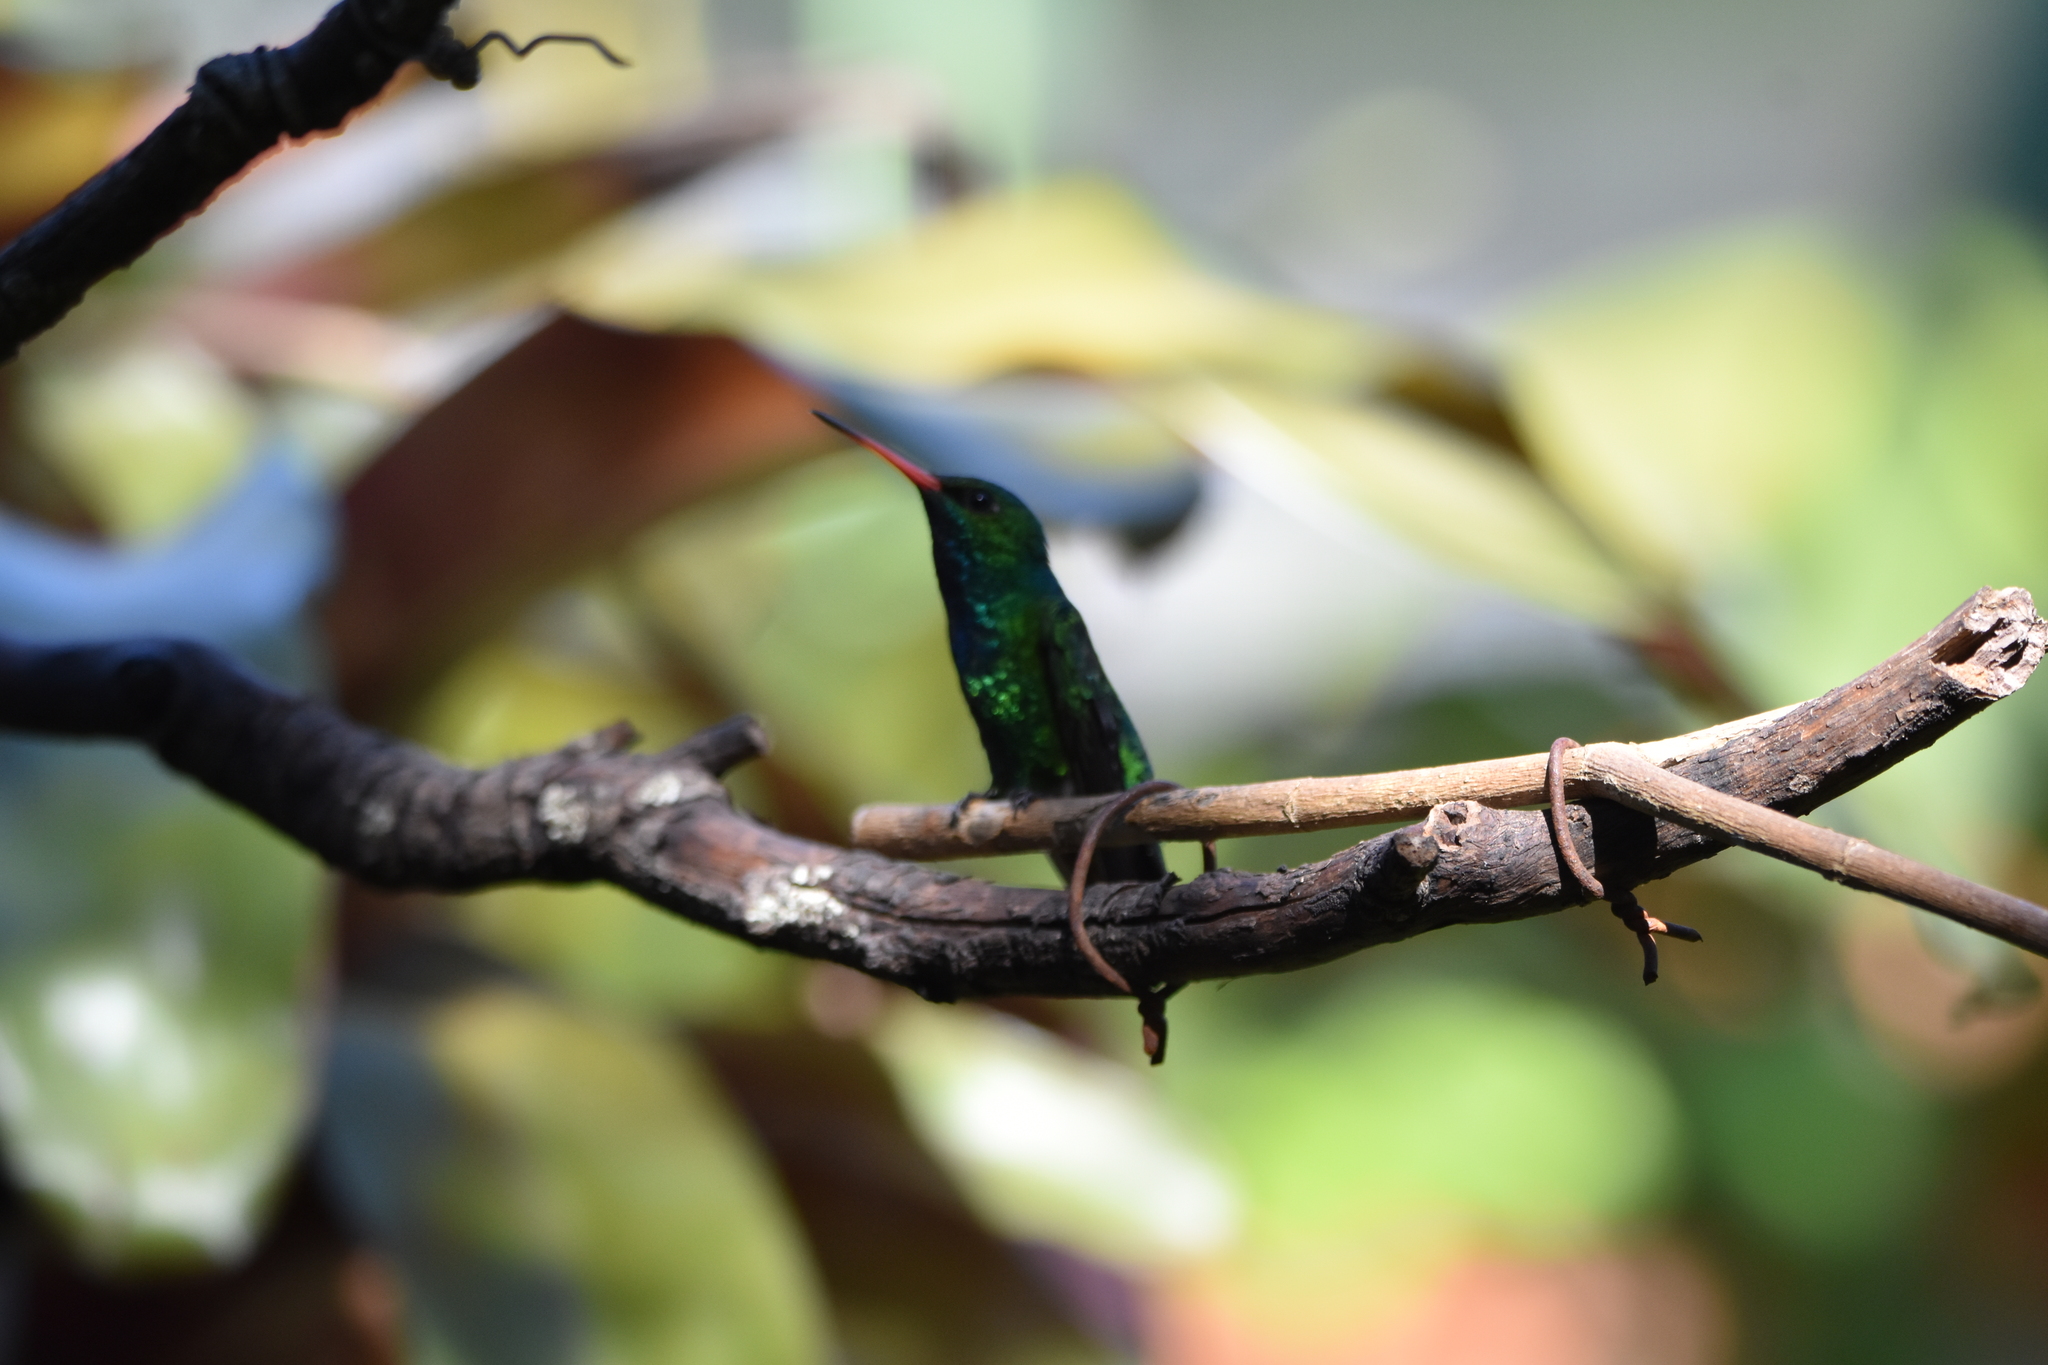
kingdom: Animalia
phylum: Chordata
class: Aves
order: Apodiformes
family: Trochilidae
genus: Chlorostilbon
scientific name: Chlorostilbon lucidus
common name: Glittering-bellied emerald
